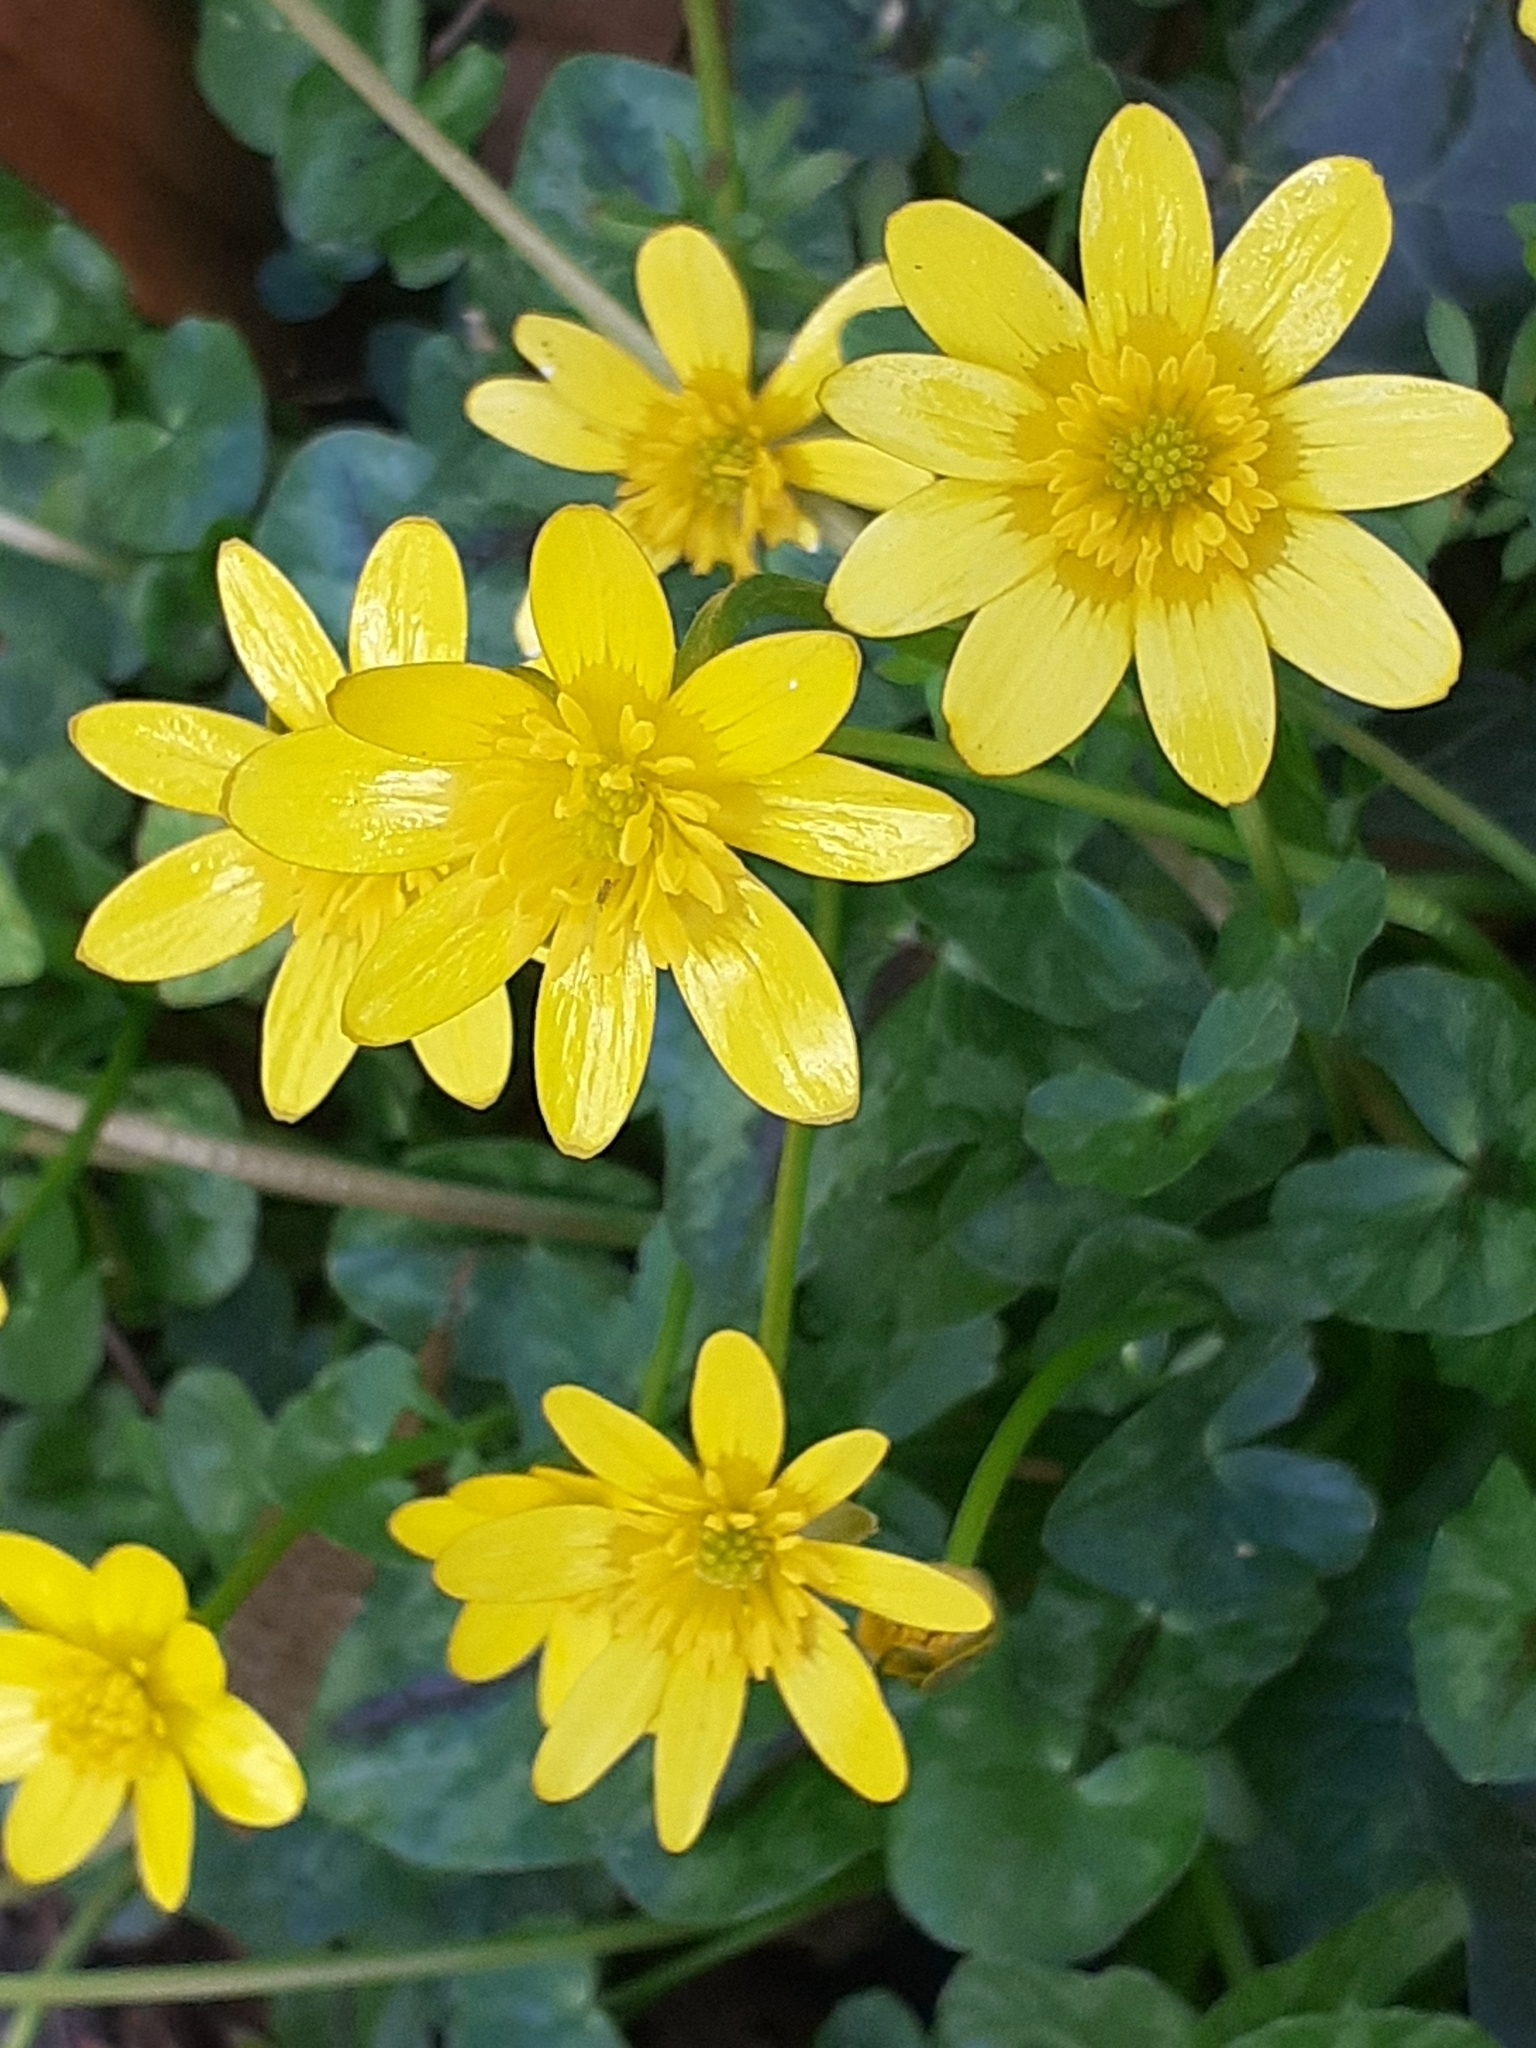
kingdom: Plantae
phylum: Tracheophyta
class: Magnoliopsida
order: Ranunculales
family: Ranunculaceae
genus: Ficaria
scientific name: Ficaria verna
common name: Lesser celandine
